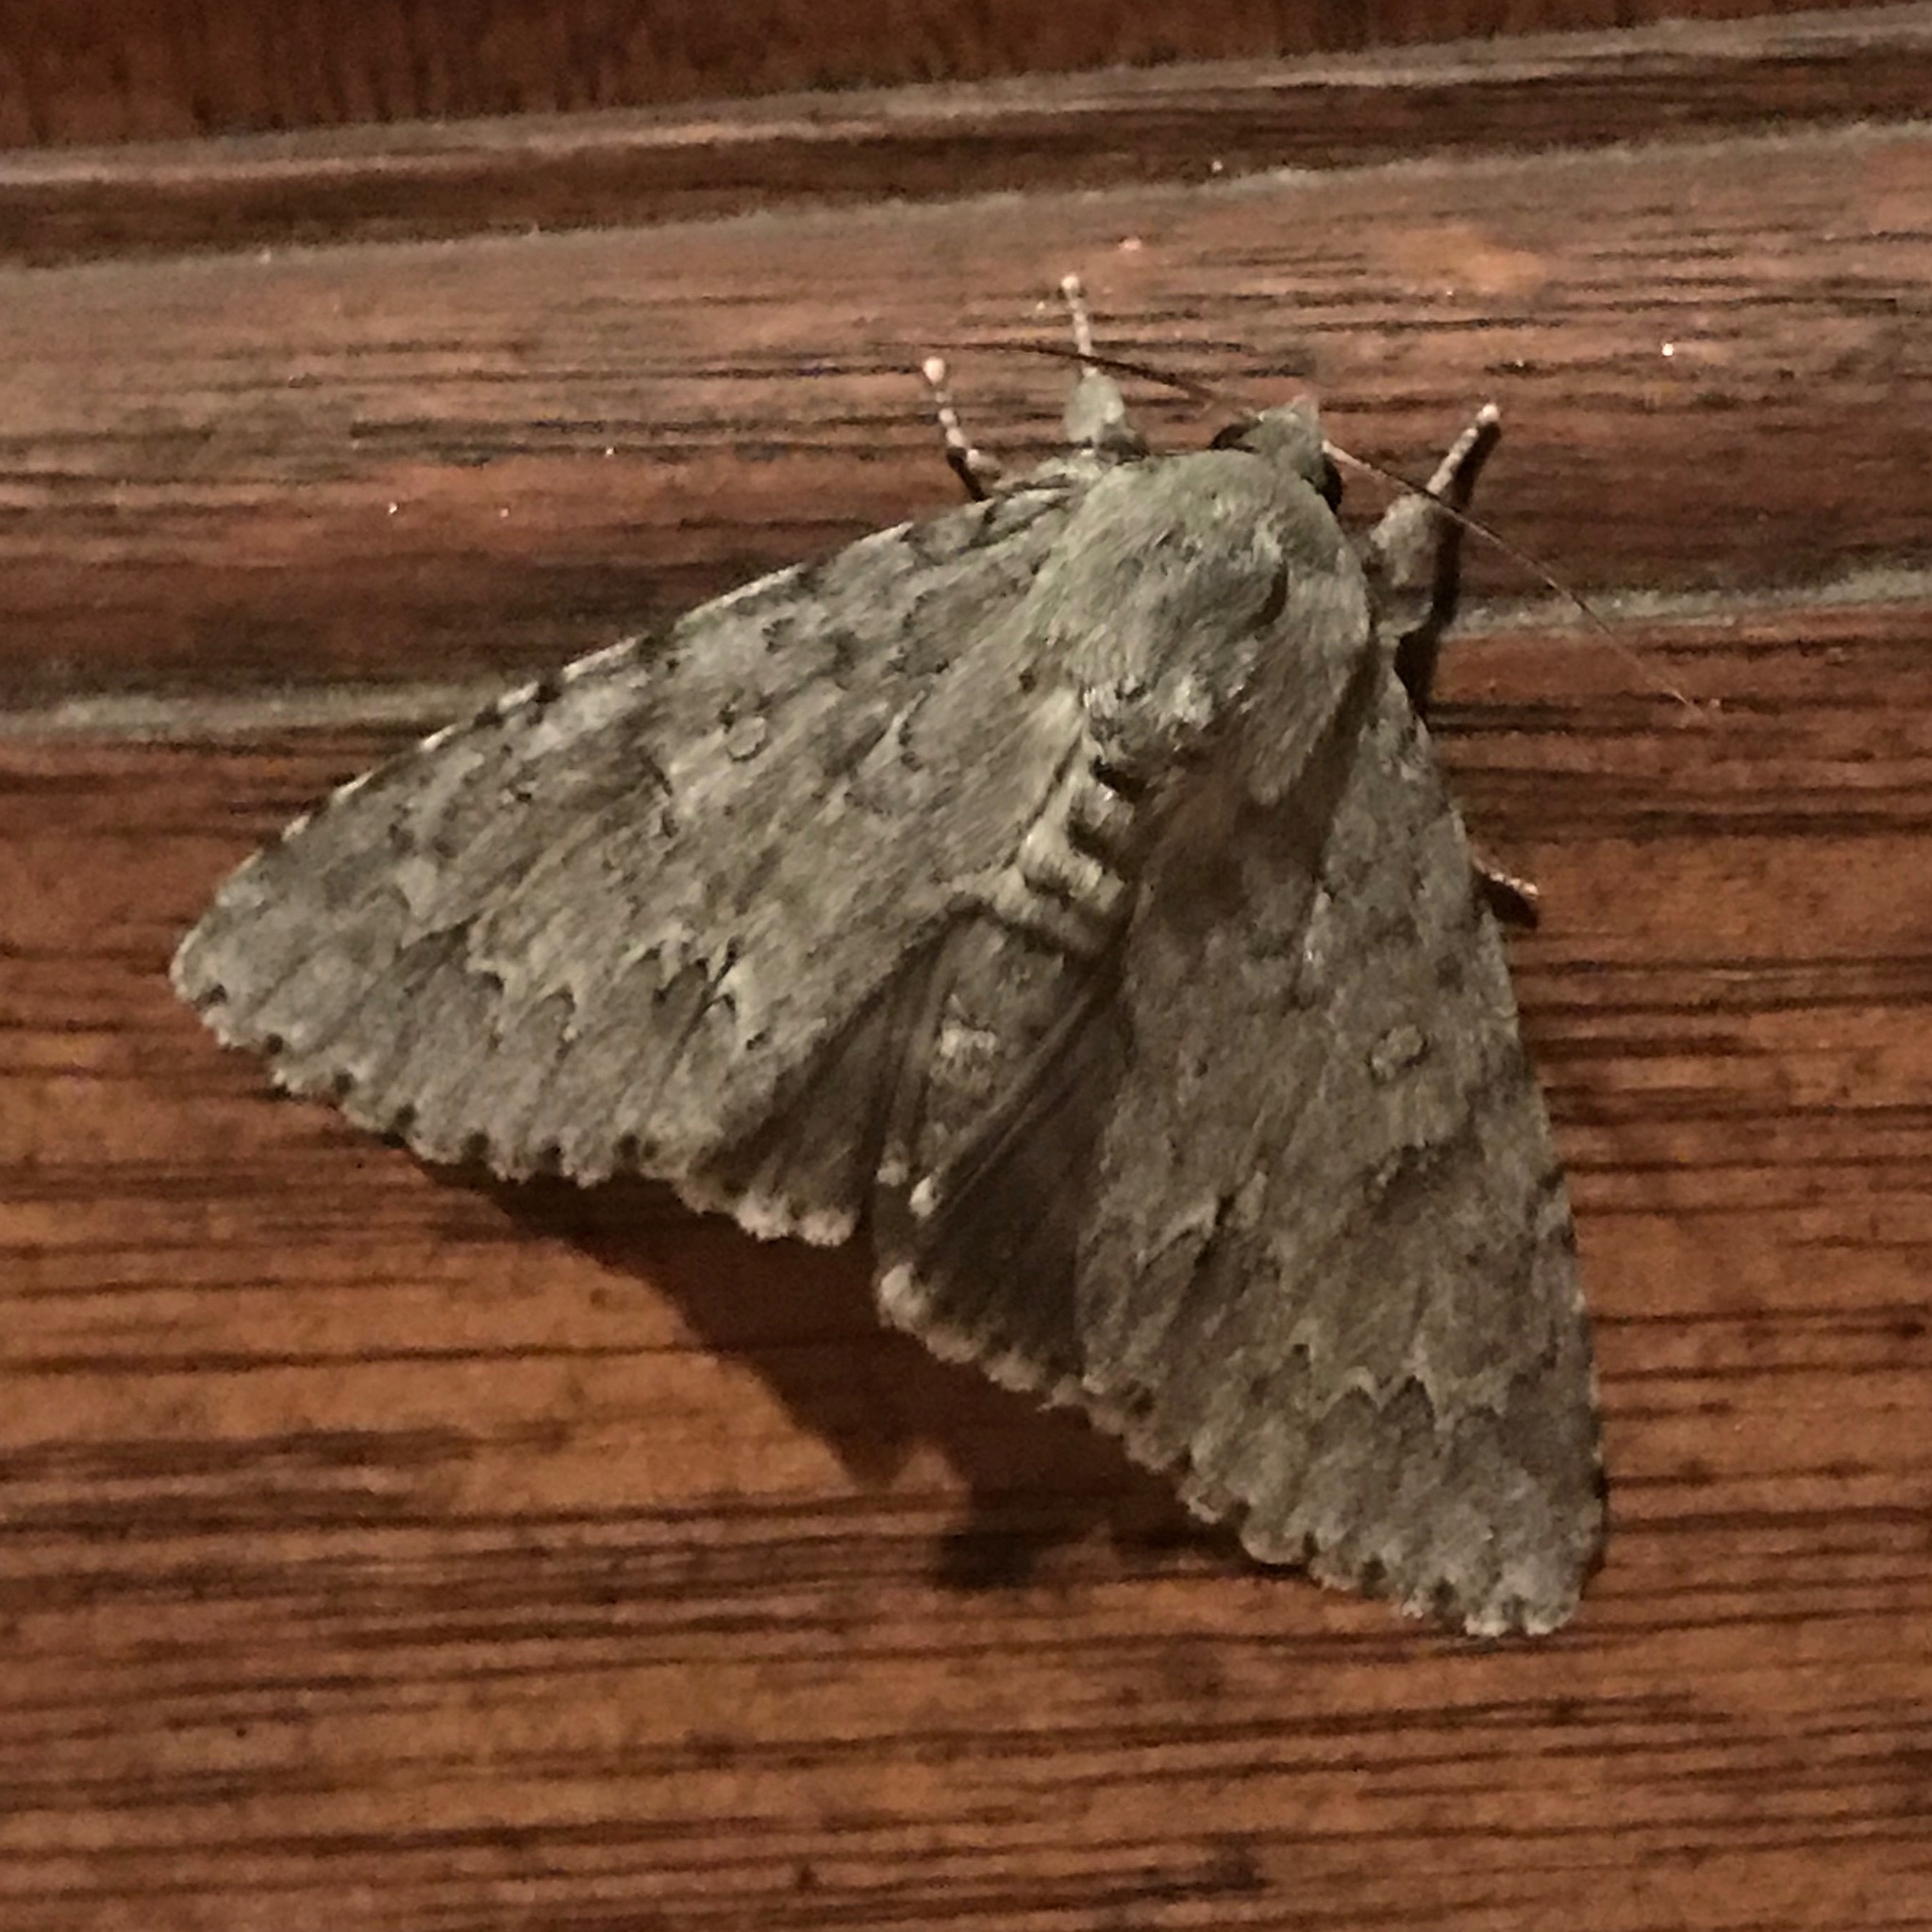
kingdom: Animalia
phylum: Arthropoda
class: Insecta
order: Lepidoptera
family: Noctuidae
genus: Acronicta
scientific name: Acronicta americana
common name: American dagger
